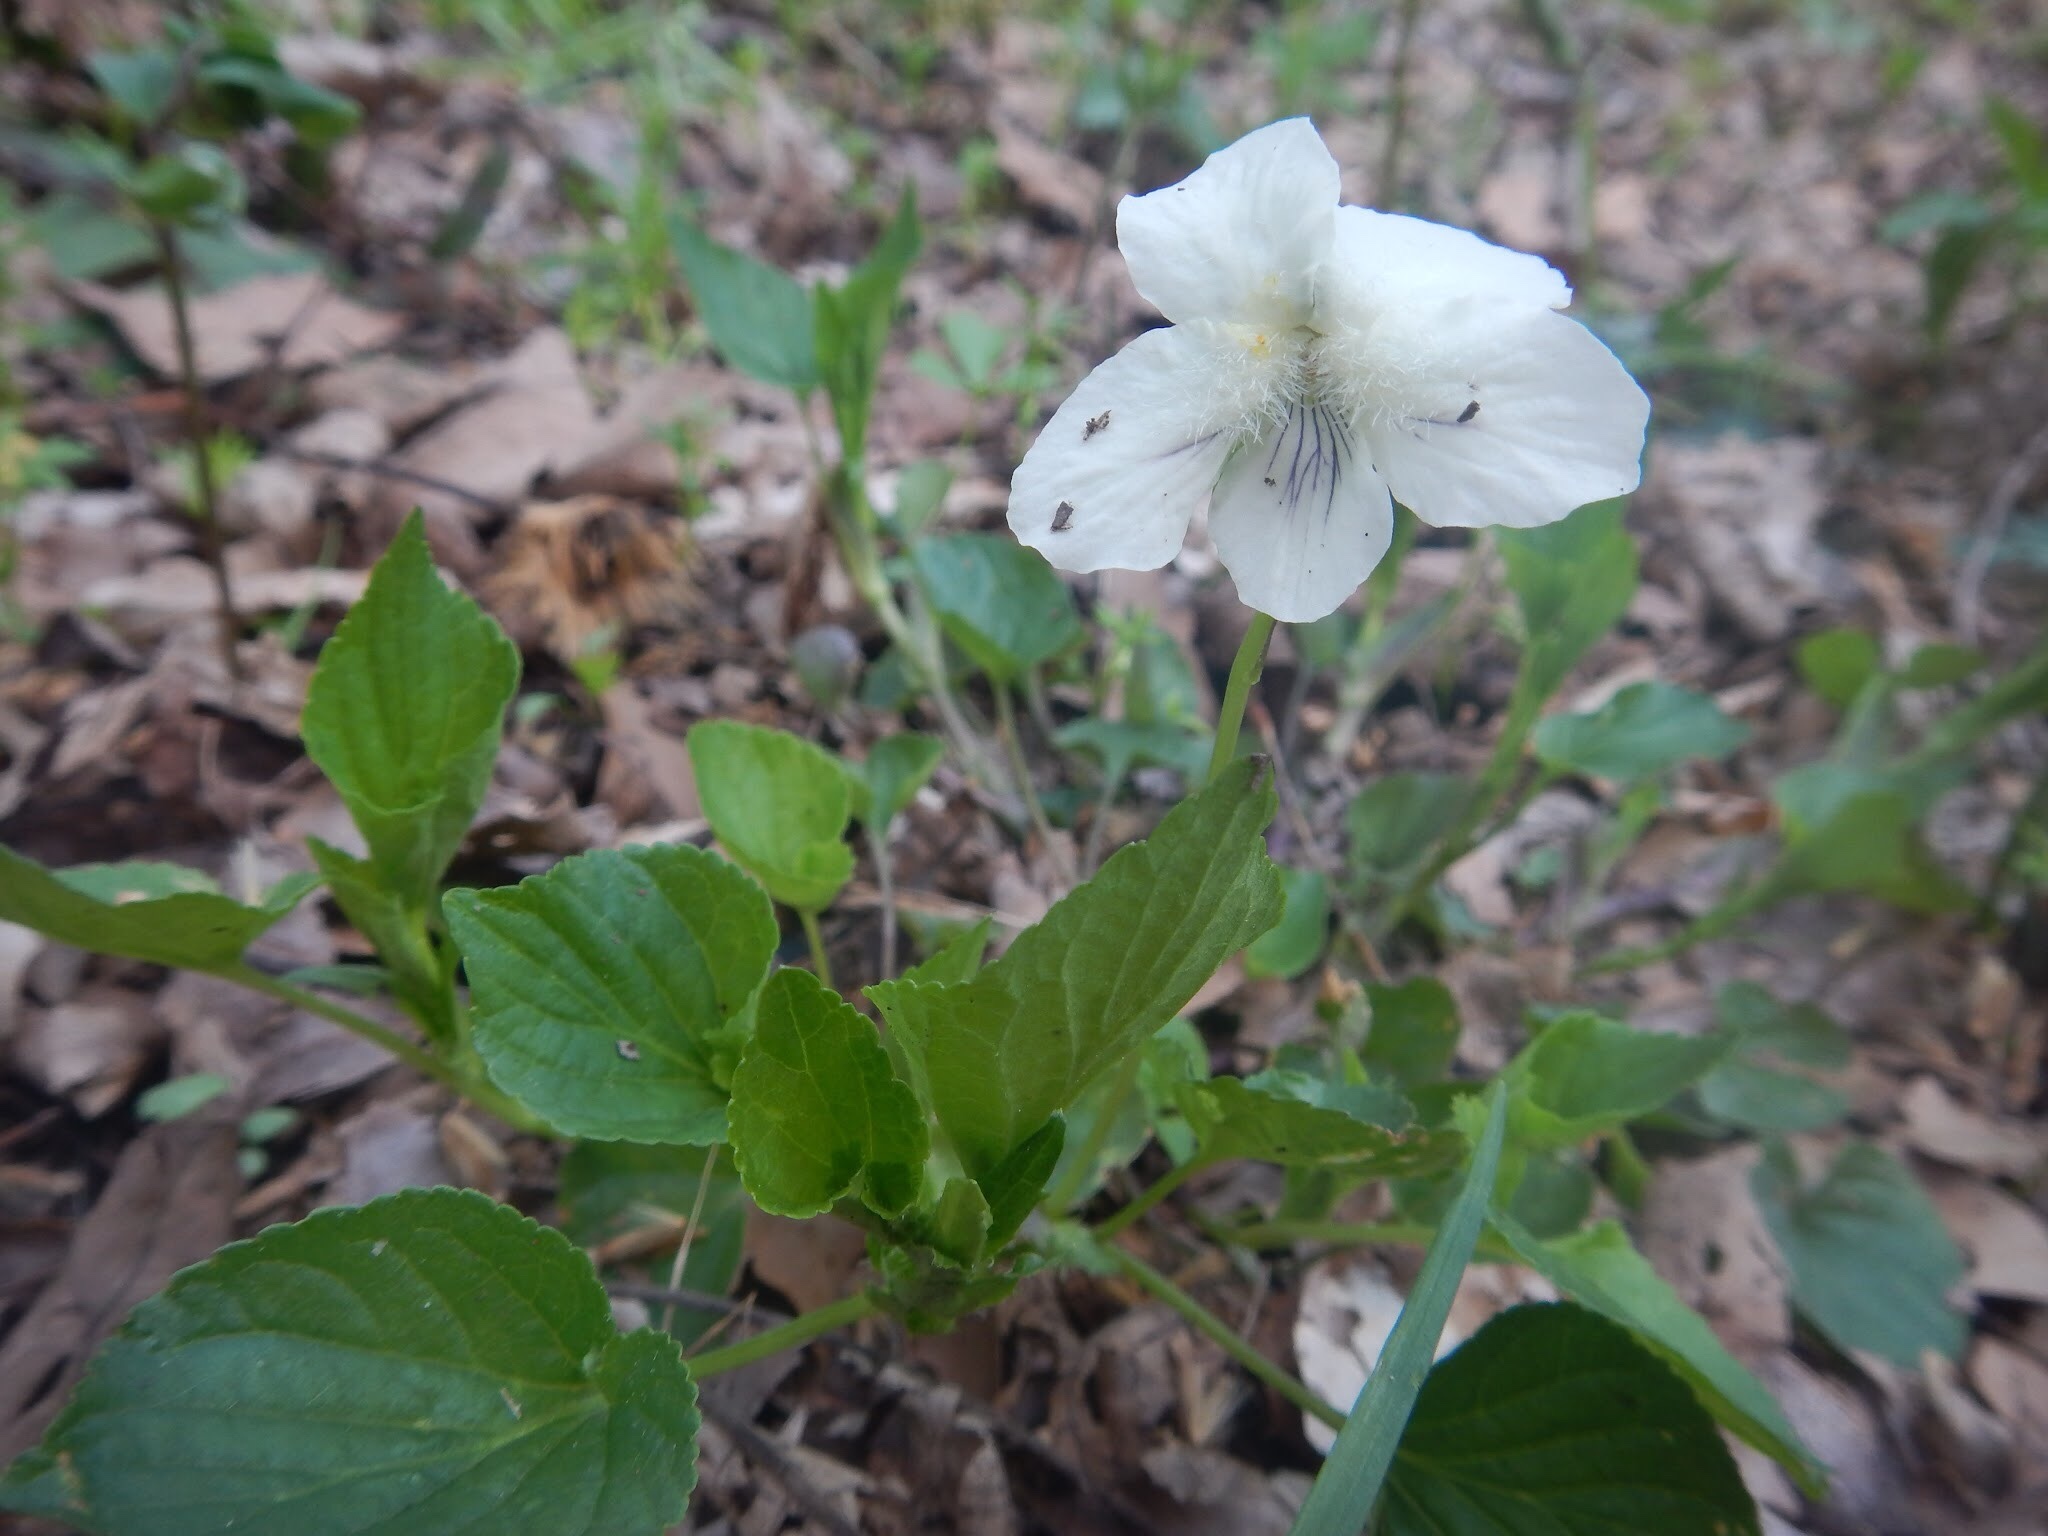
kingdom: Plantae
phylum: Tracheophyta
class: Magnoliopsida
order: Malpighiales
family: Violaceae
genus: Viola
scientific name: Viola striata
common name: Cream violet
